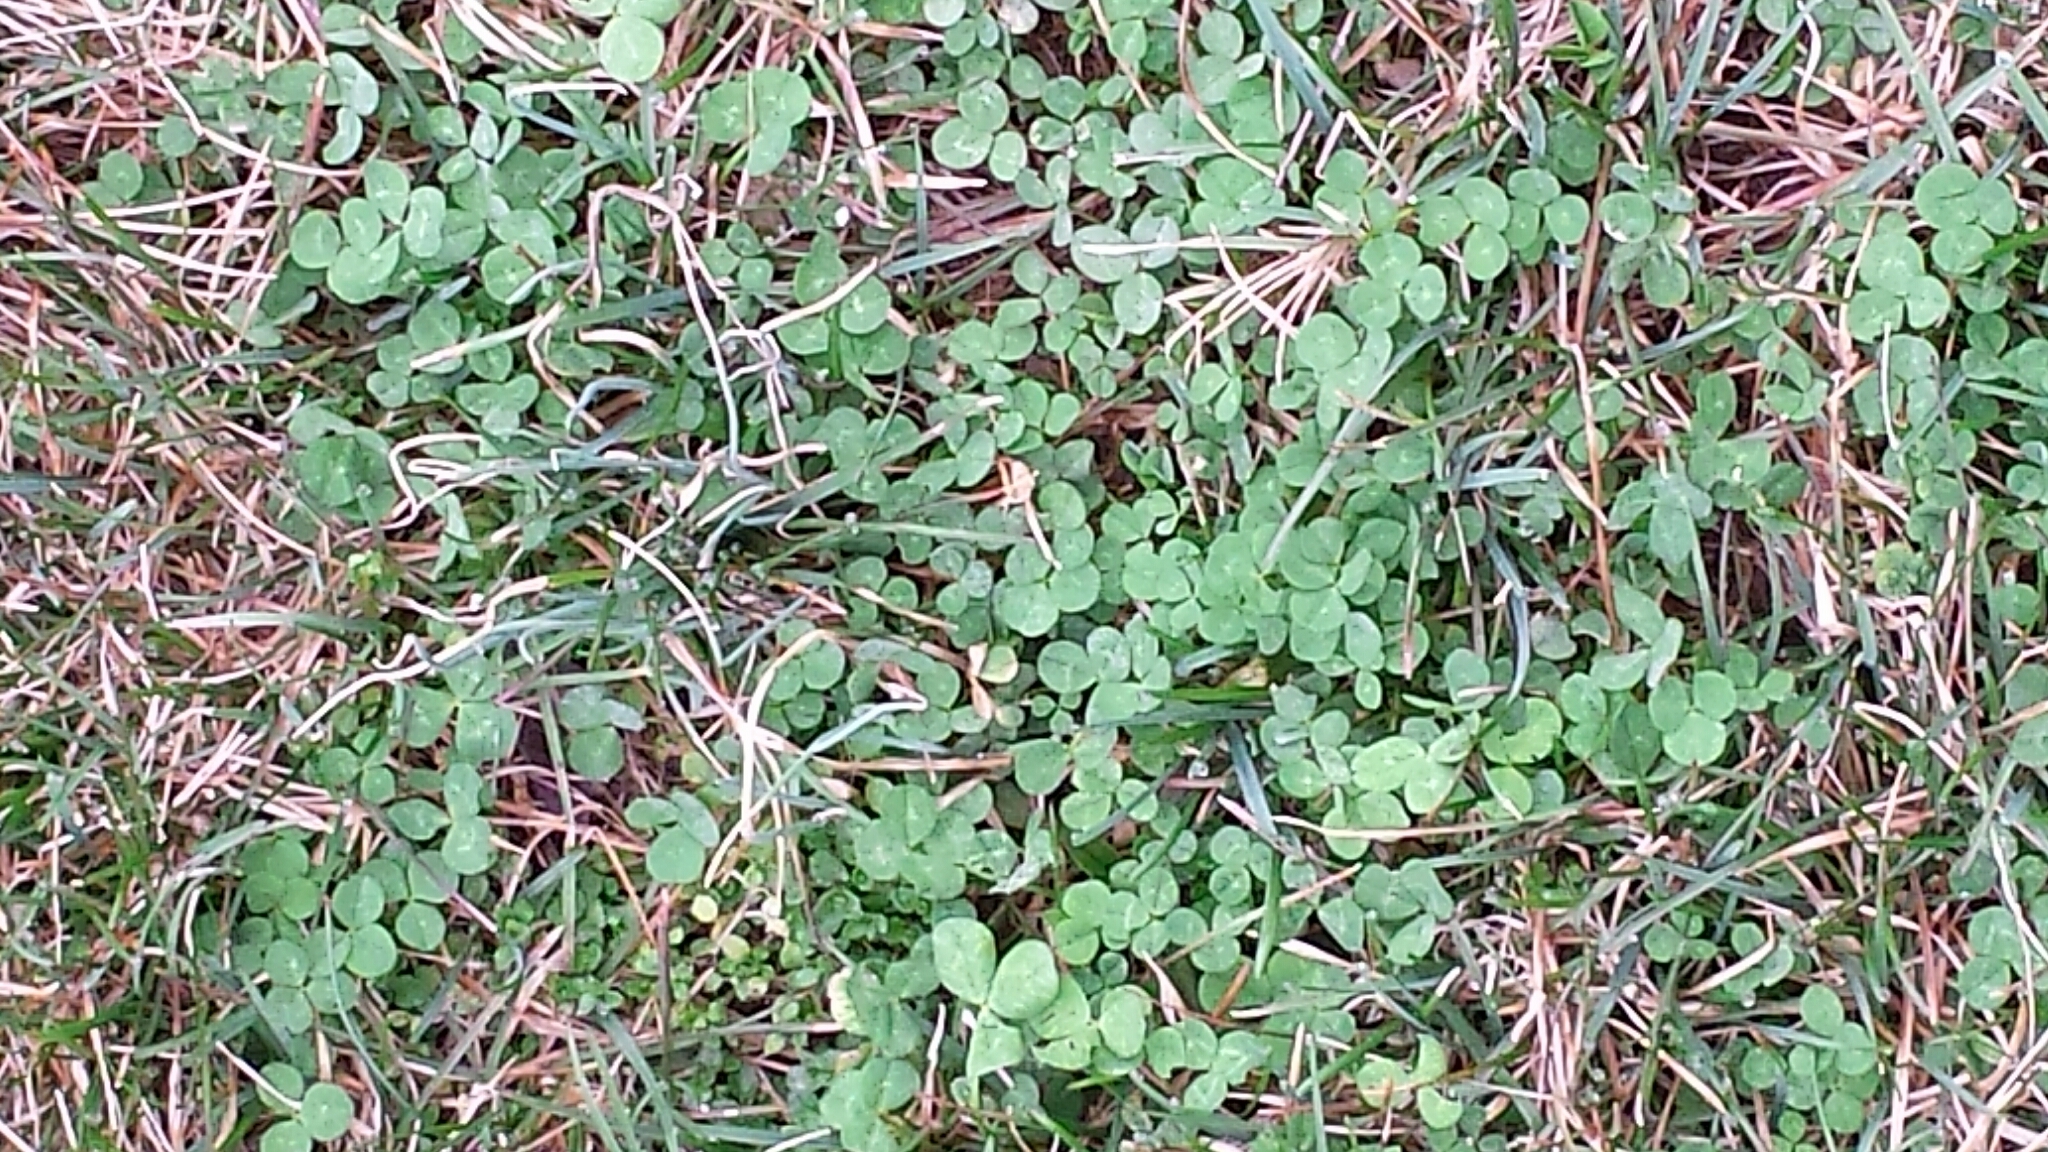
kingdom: Plantae
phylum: Tracheophyta
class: Magnoliopsida
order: Fabales
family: Fabaceae
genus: Trifolium
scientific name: Trifolium repens
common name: White clover
